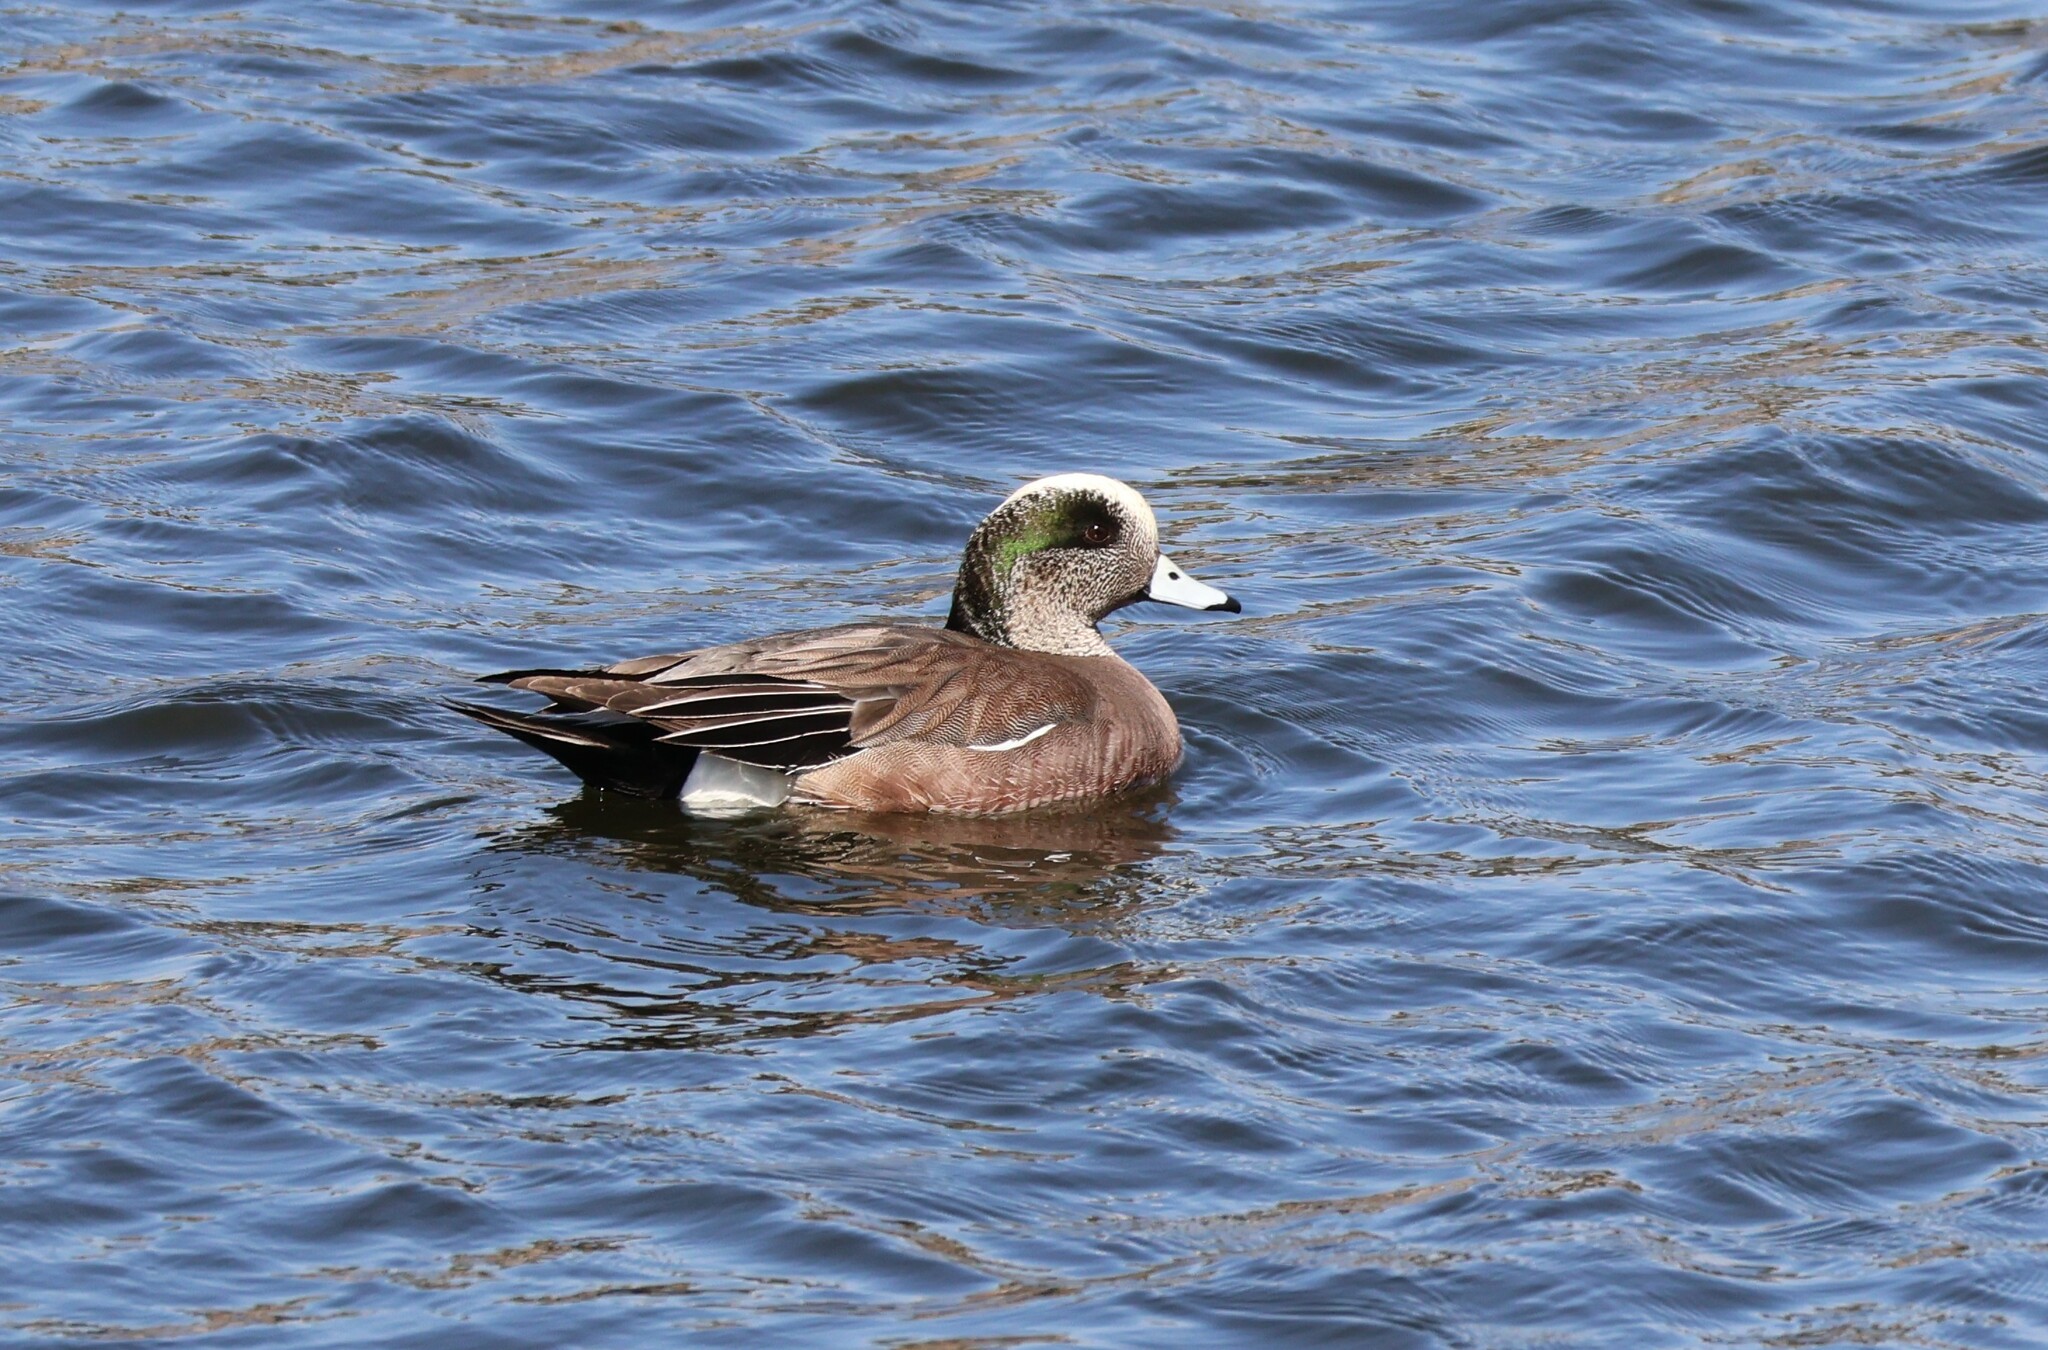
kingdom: Animalia
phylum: Chordata
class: Aves
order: Anseriformes
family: Anatidae
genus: Mareca
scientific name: Mareca americana
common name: American wigeon
